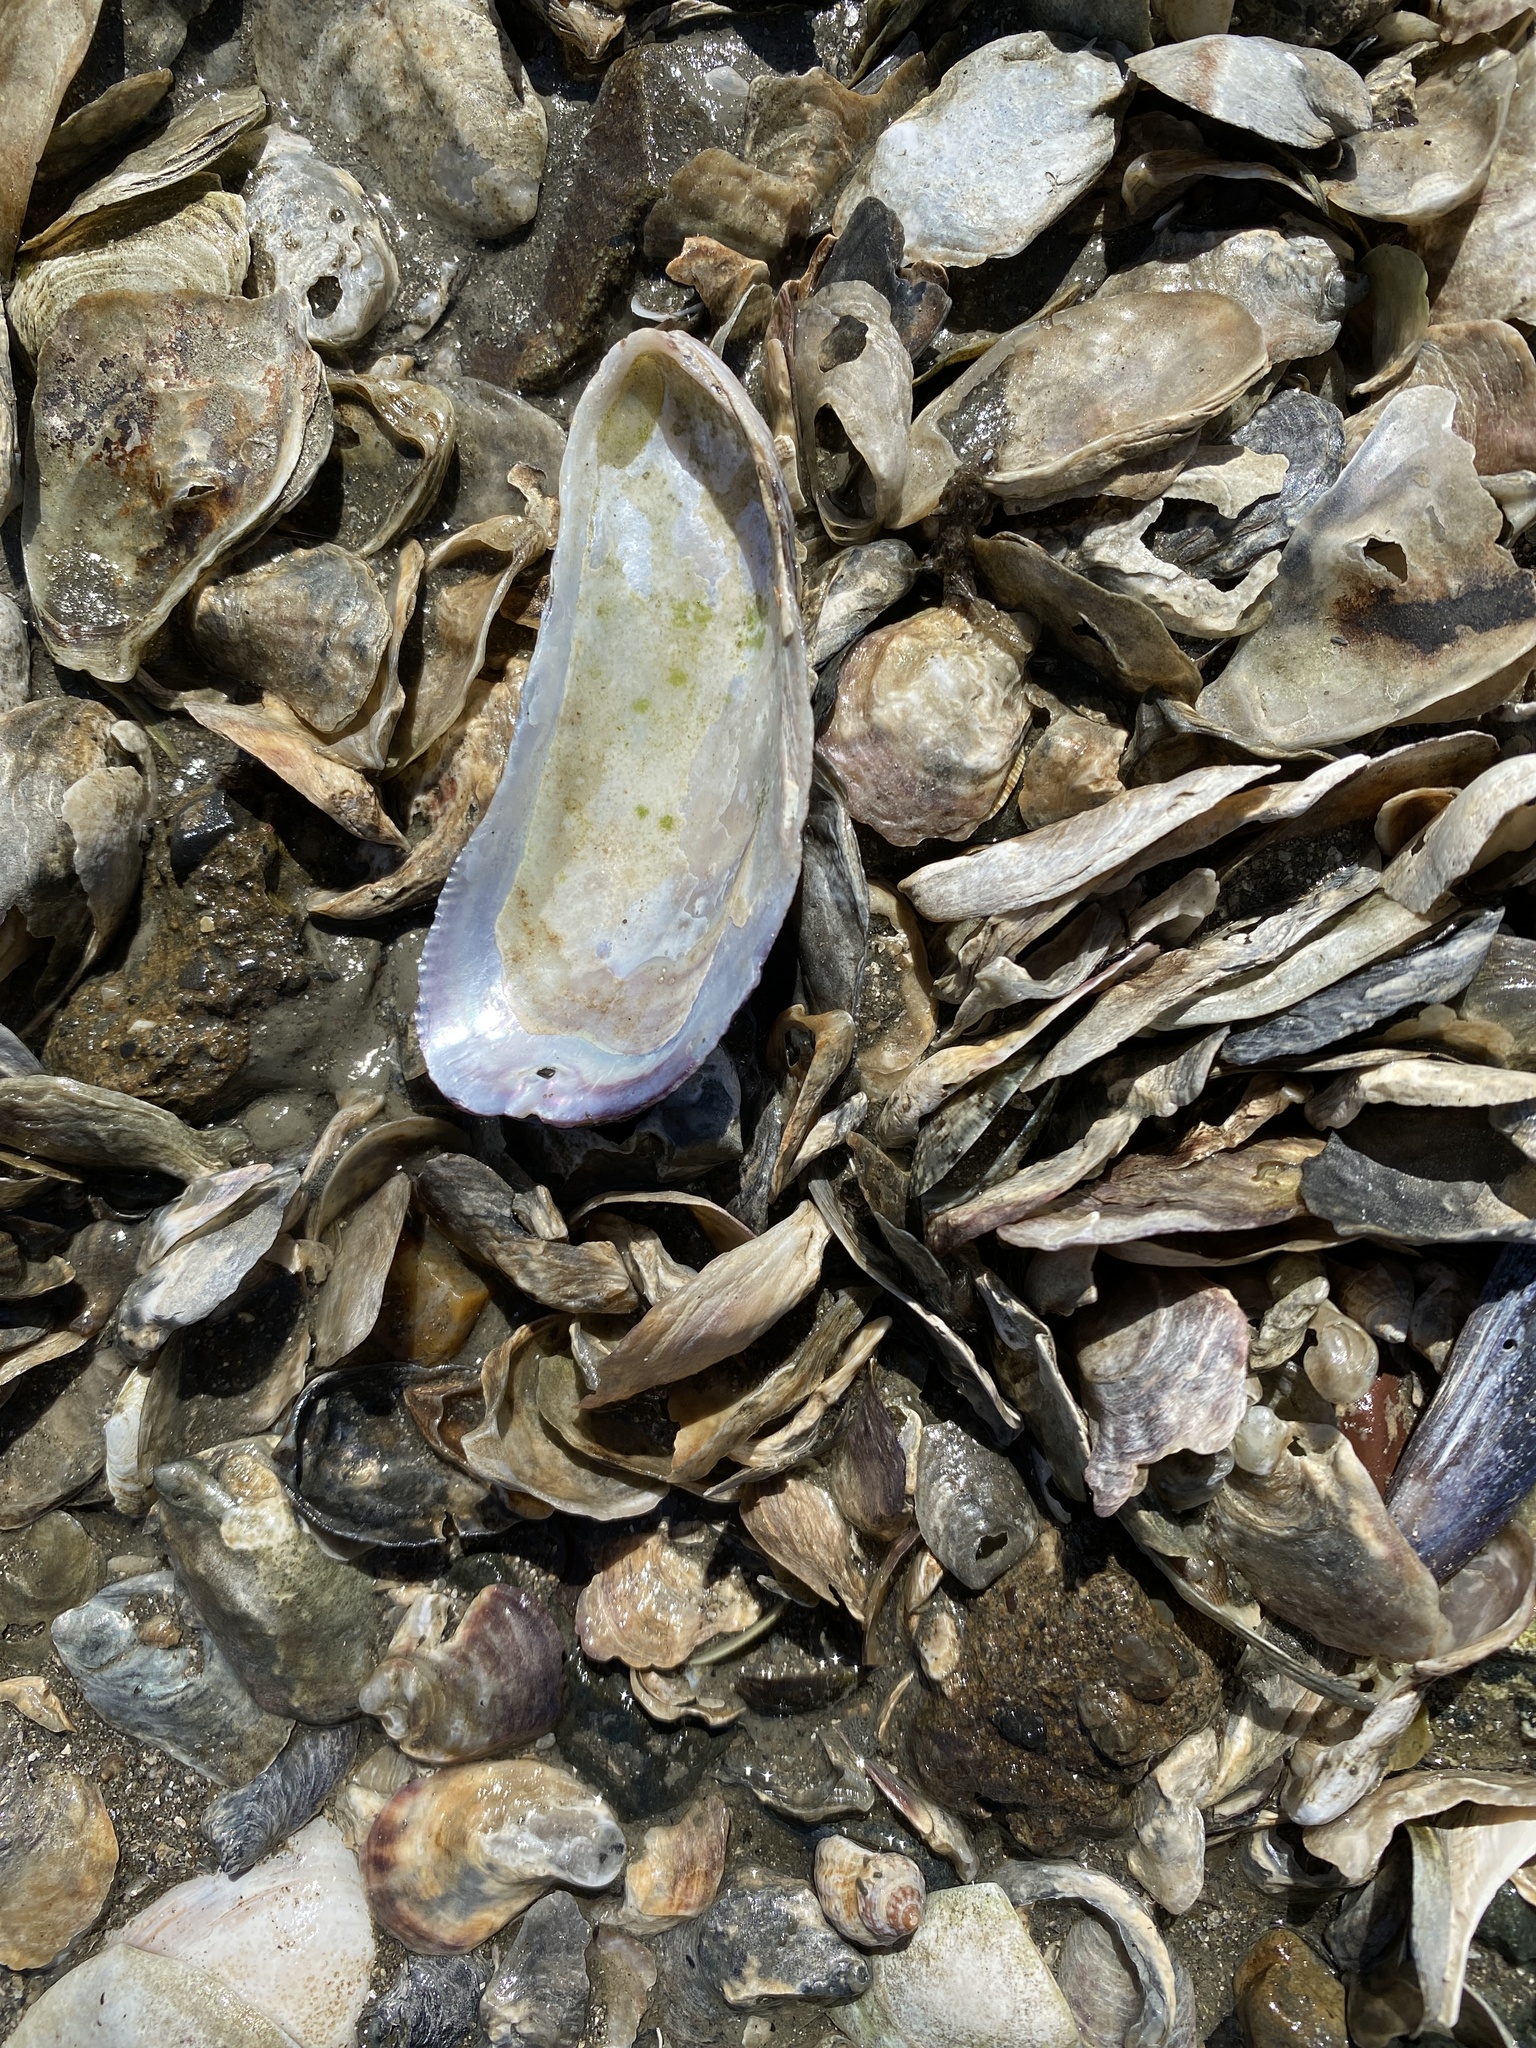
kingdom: Animalia
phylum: Mollusca
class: Bivalvia
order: Mytilida
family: Mytilidae
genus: Geukensia
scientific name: Geukensia demissa
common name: Ribbed mussel
